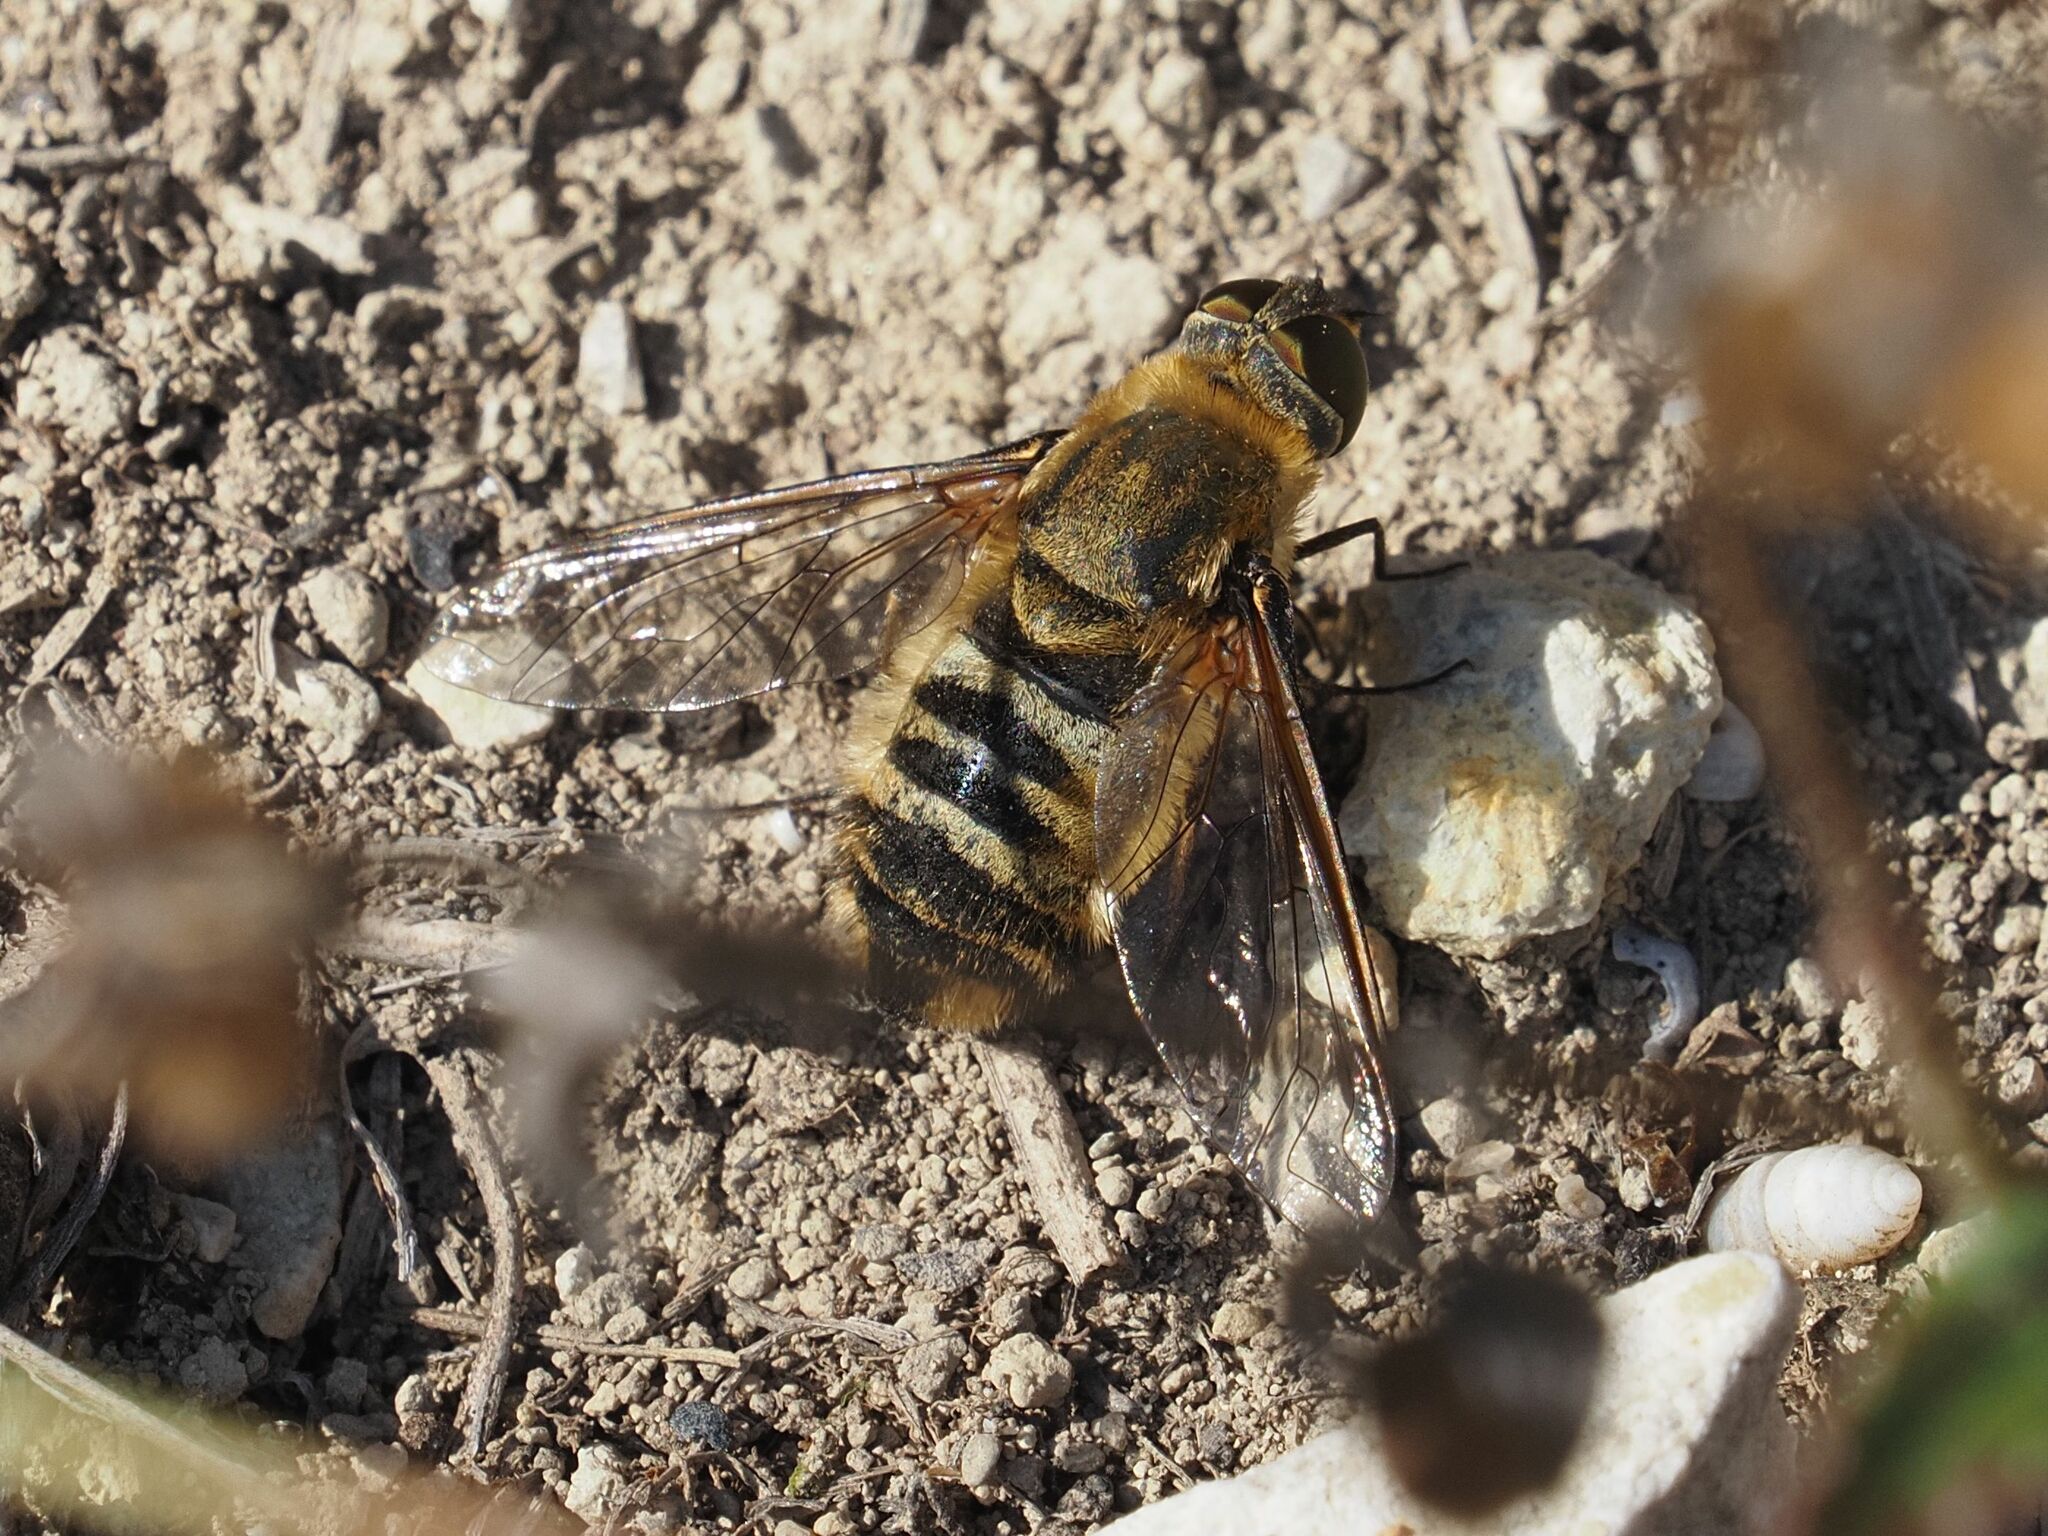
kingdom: Animalia
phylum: Arthropoda
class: Insecta
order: Diptera
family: Bombyliidae
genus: Villa
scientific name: Villa hottentotta
